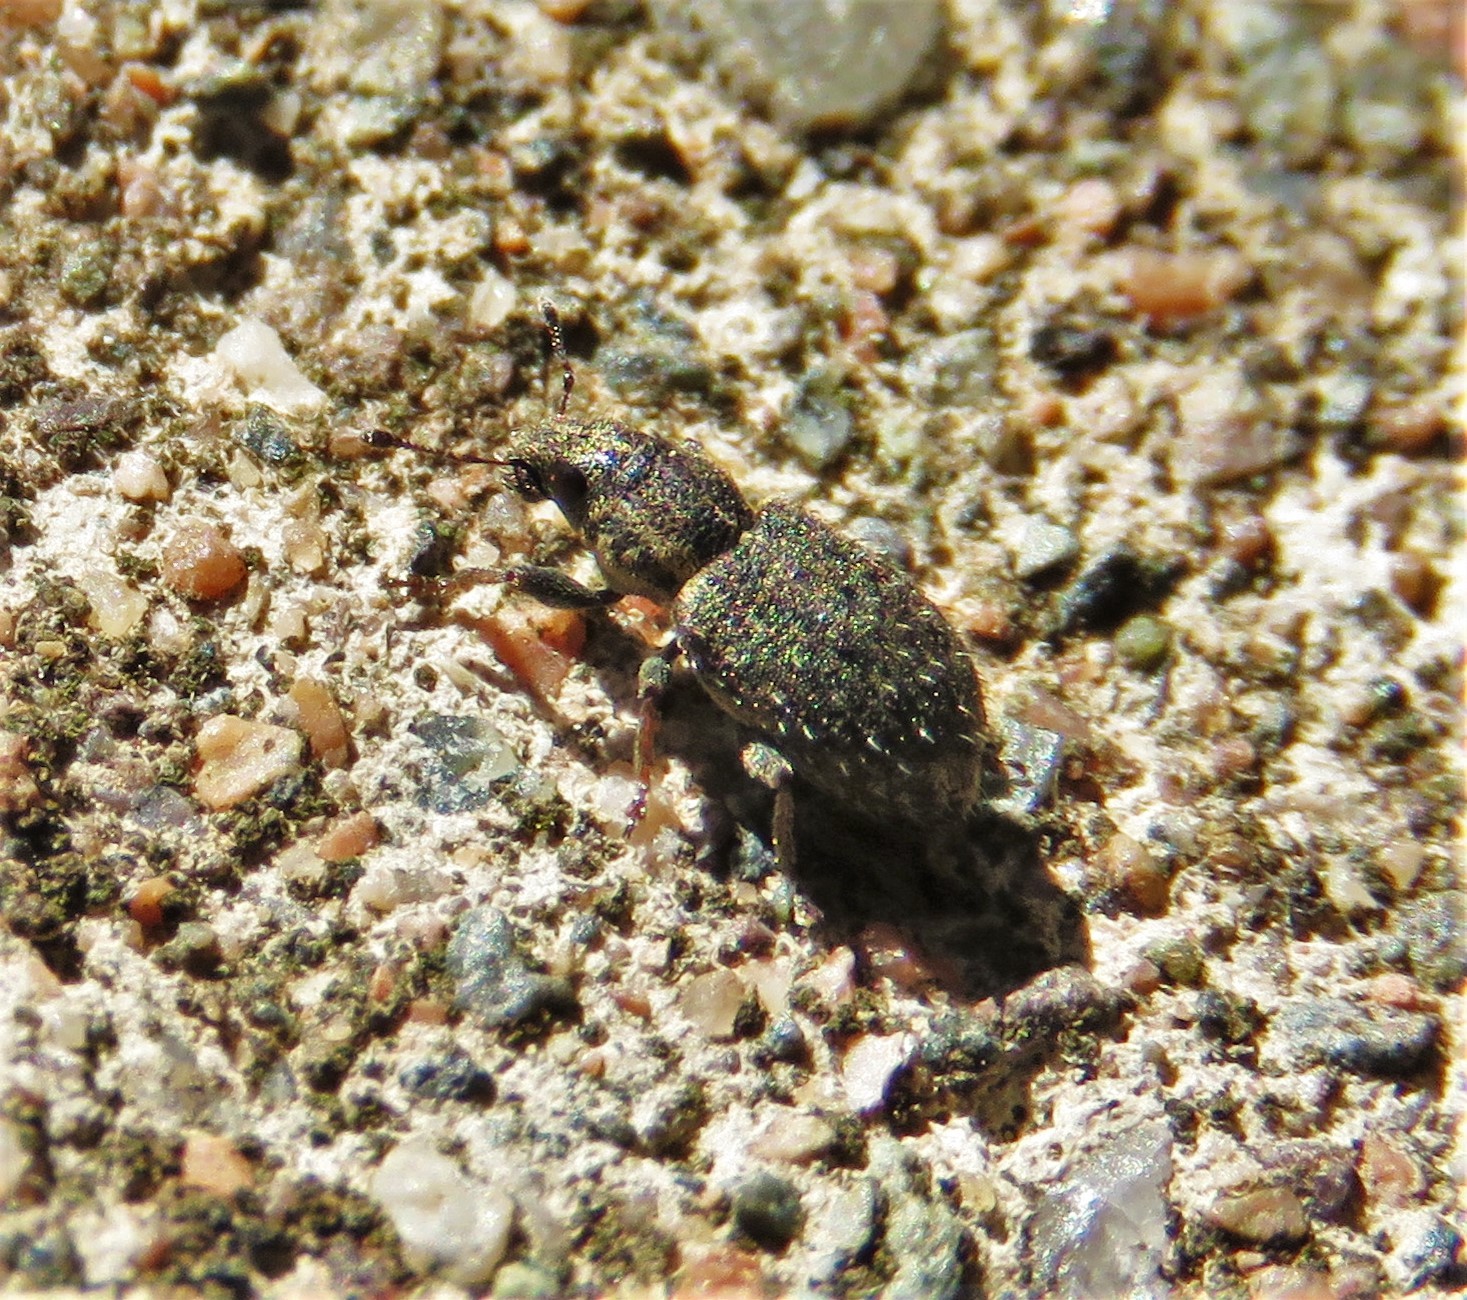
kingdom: Animalia
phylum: Arthropoda
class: Insecta
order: Coleoptera
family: Curculionidae
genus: Sitona
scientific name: Sitona hispidulus
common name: Clover weevil
